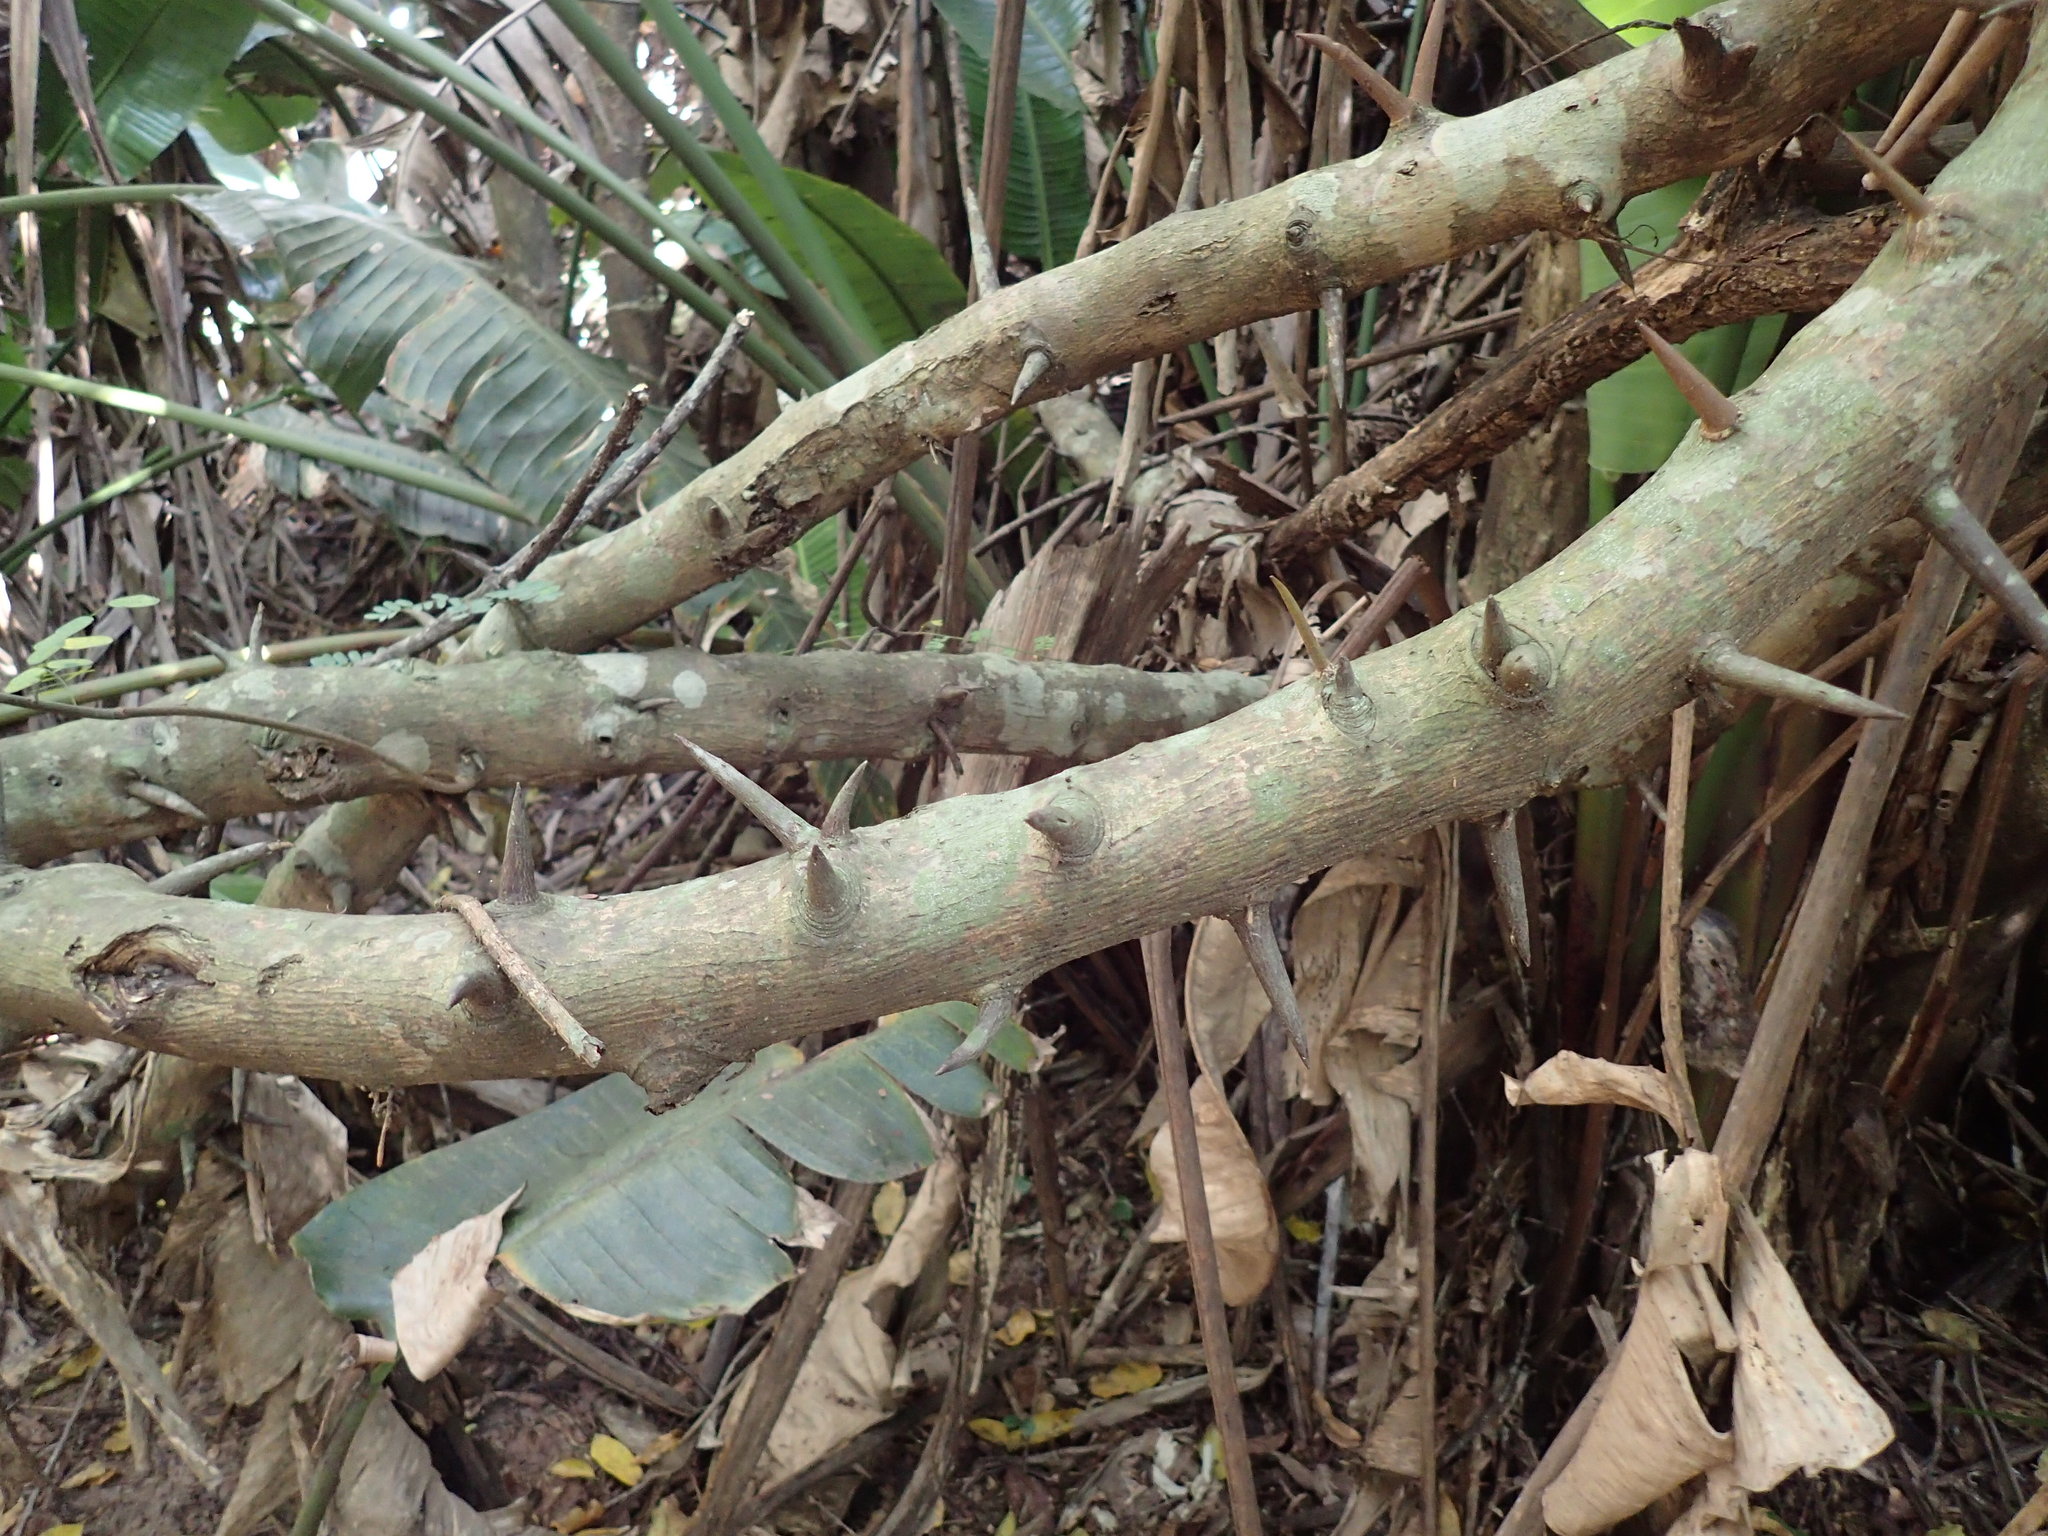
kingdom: Plantae
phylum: Tracheophyta
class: Magnoliopsida
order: Fabales
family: Fabaceae
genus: Dalbergia
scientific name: Dalbergia armata
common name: Hluhluwe climber
